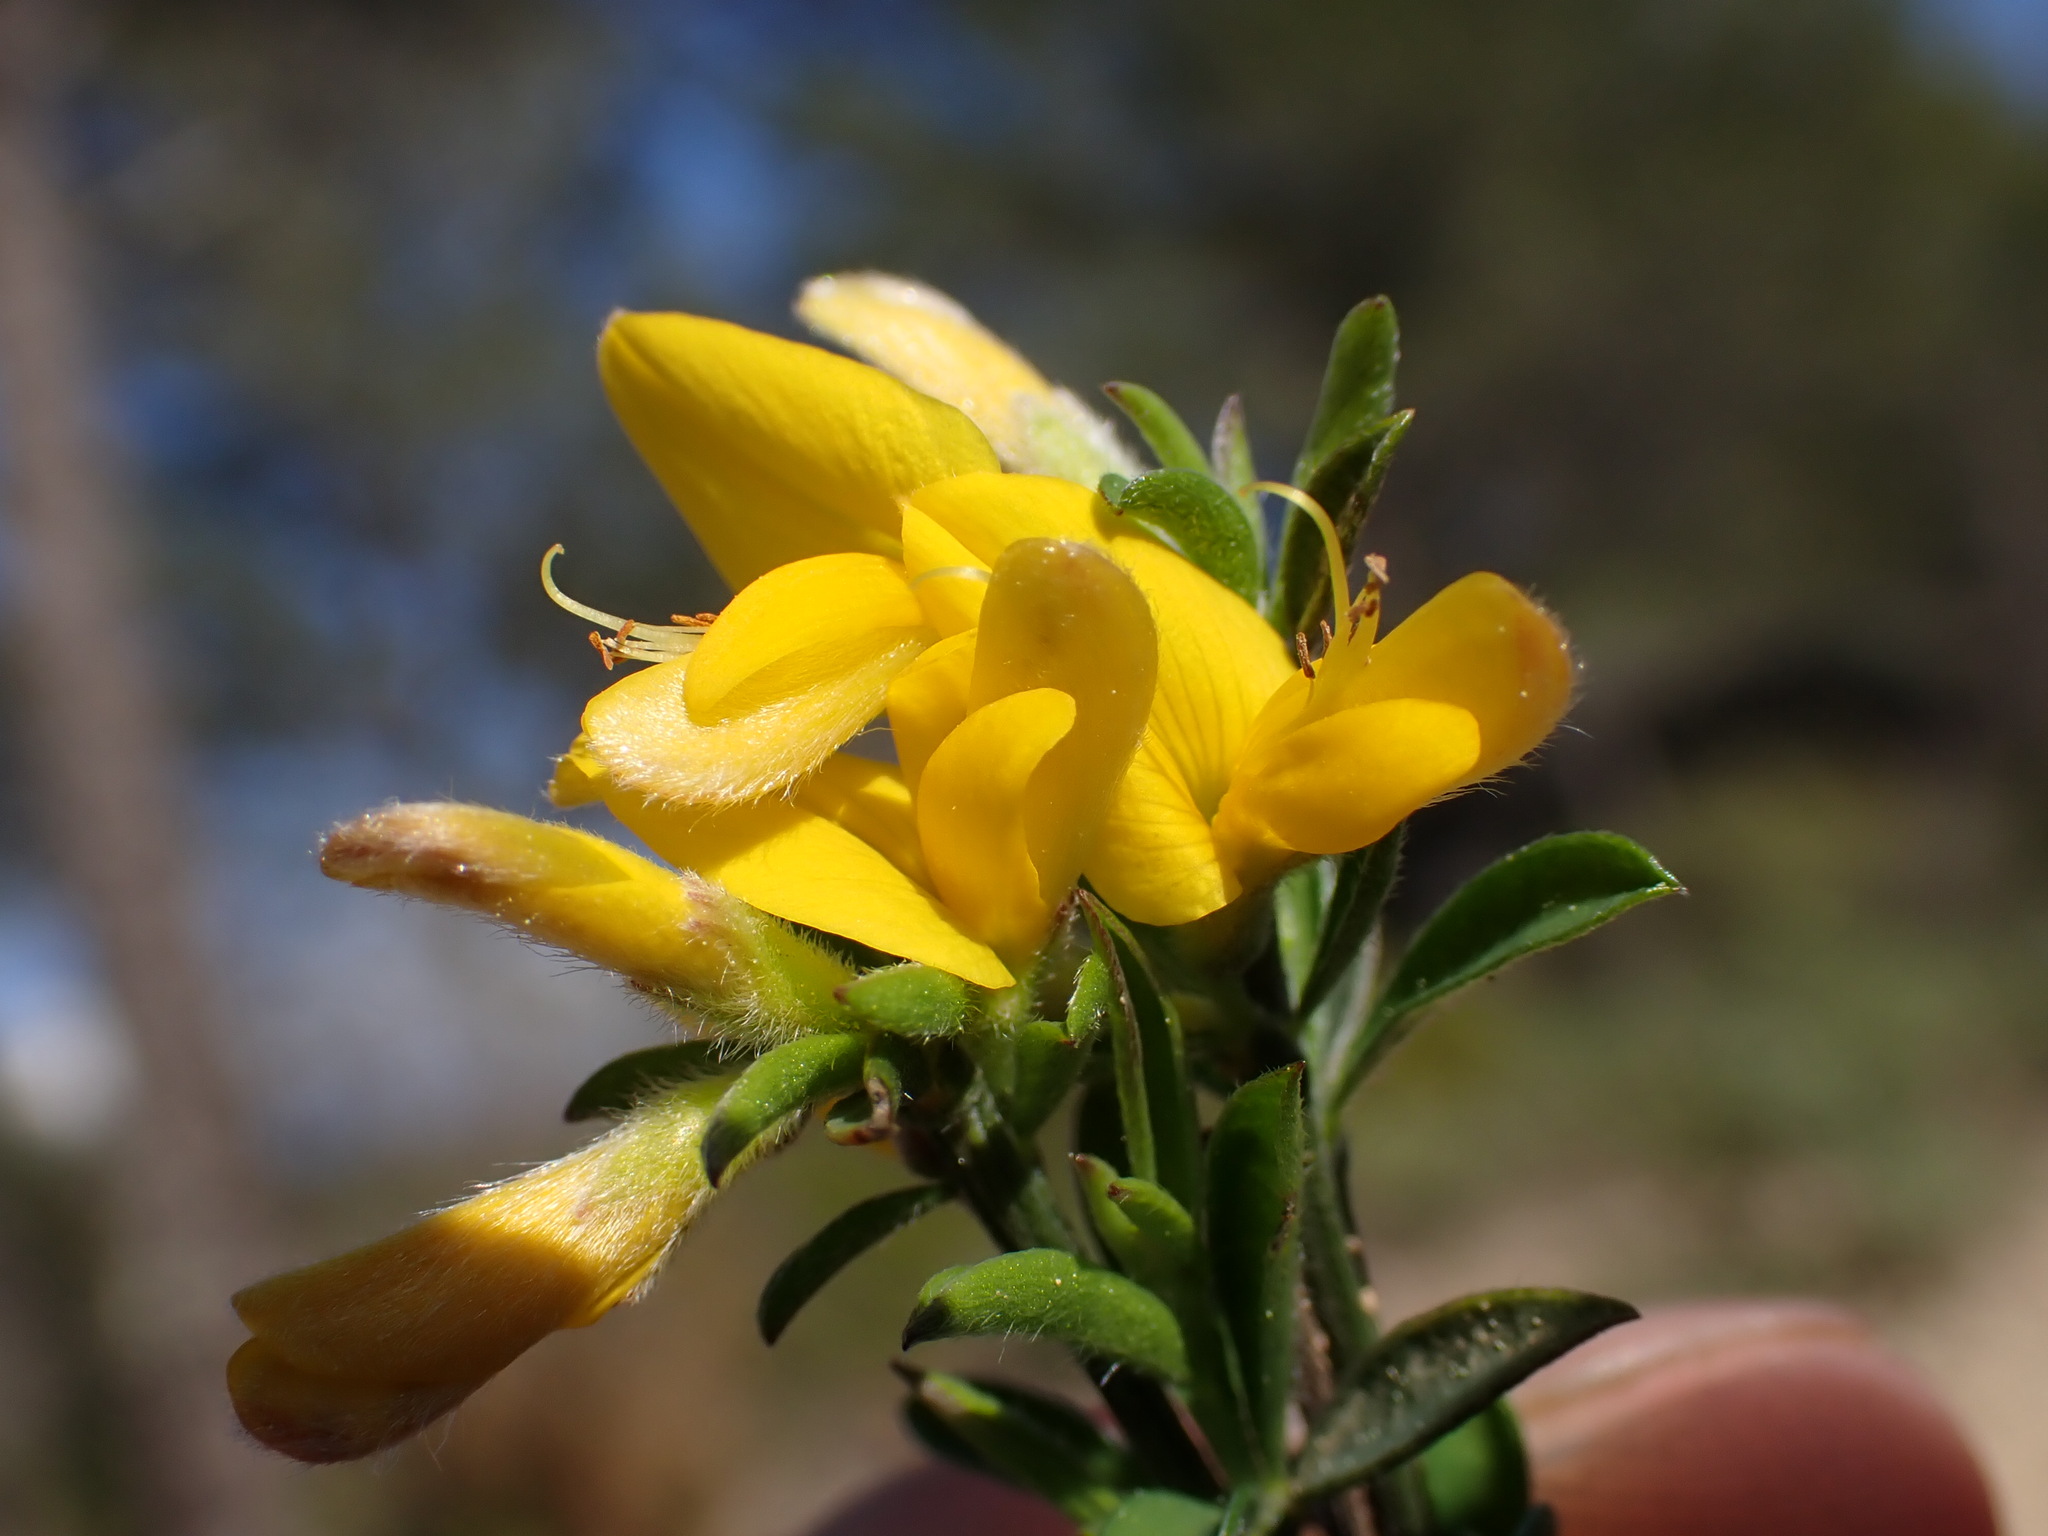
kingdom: Plantae
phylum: Tracheophyta
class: Magnoliopsida
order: Fabales
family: Fabaceae
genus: Genista
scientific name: Genista pilosa
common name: Hairy greenweed
